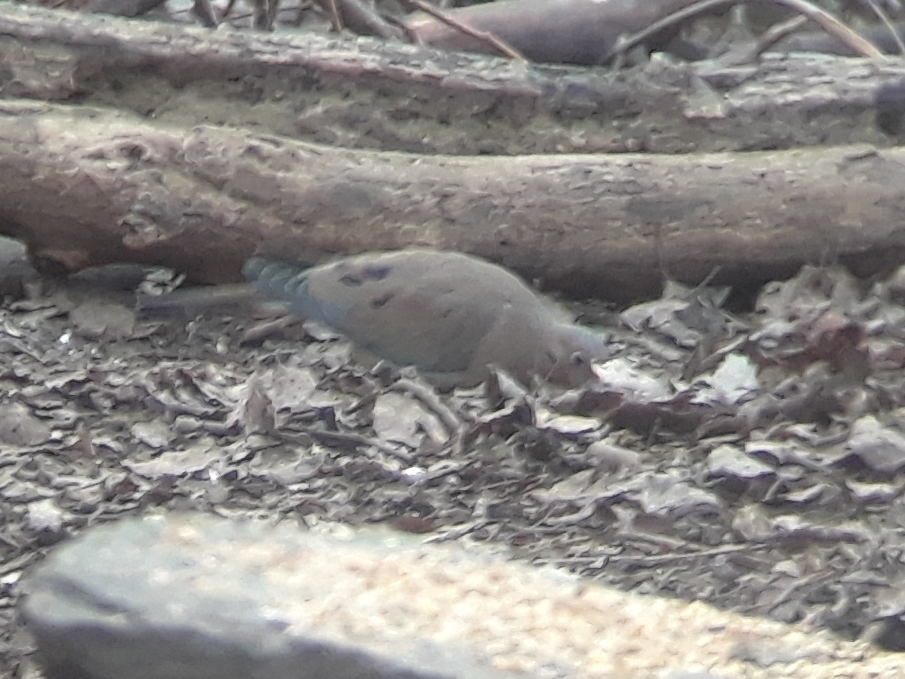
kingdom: Animalia
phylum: Chordata
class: Aves
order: Columbiformes
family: Columbidae
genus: Zenaida
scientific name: Zenaida macroura
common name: Mourning dove
